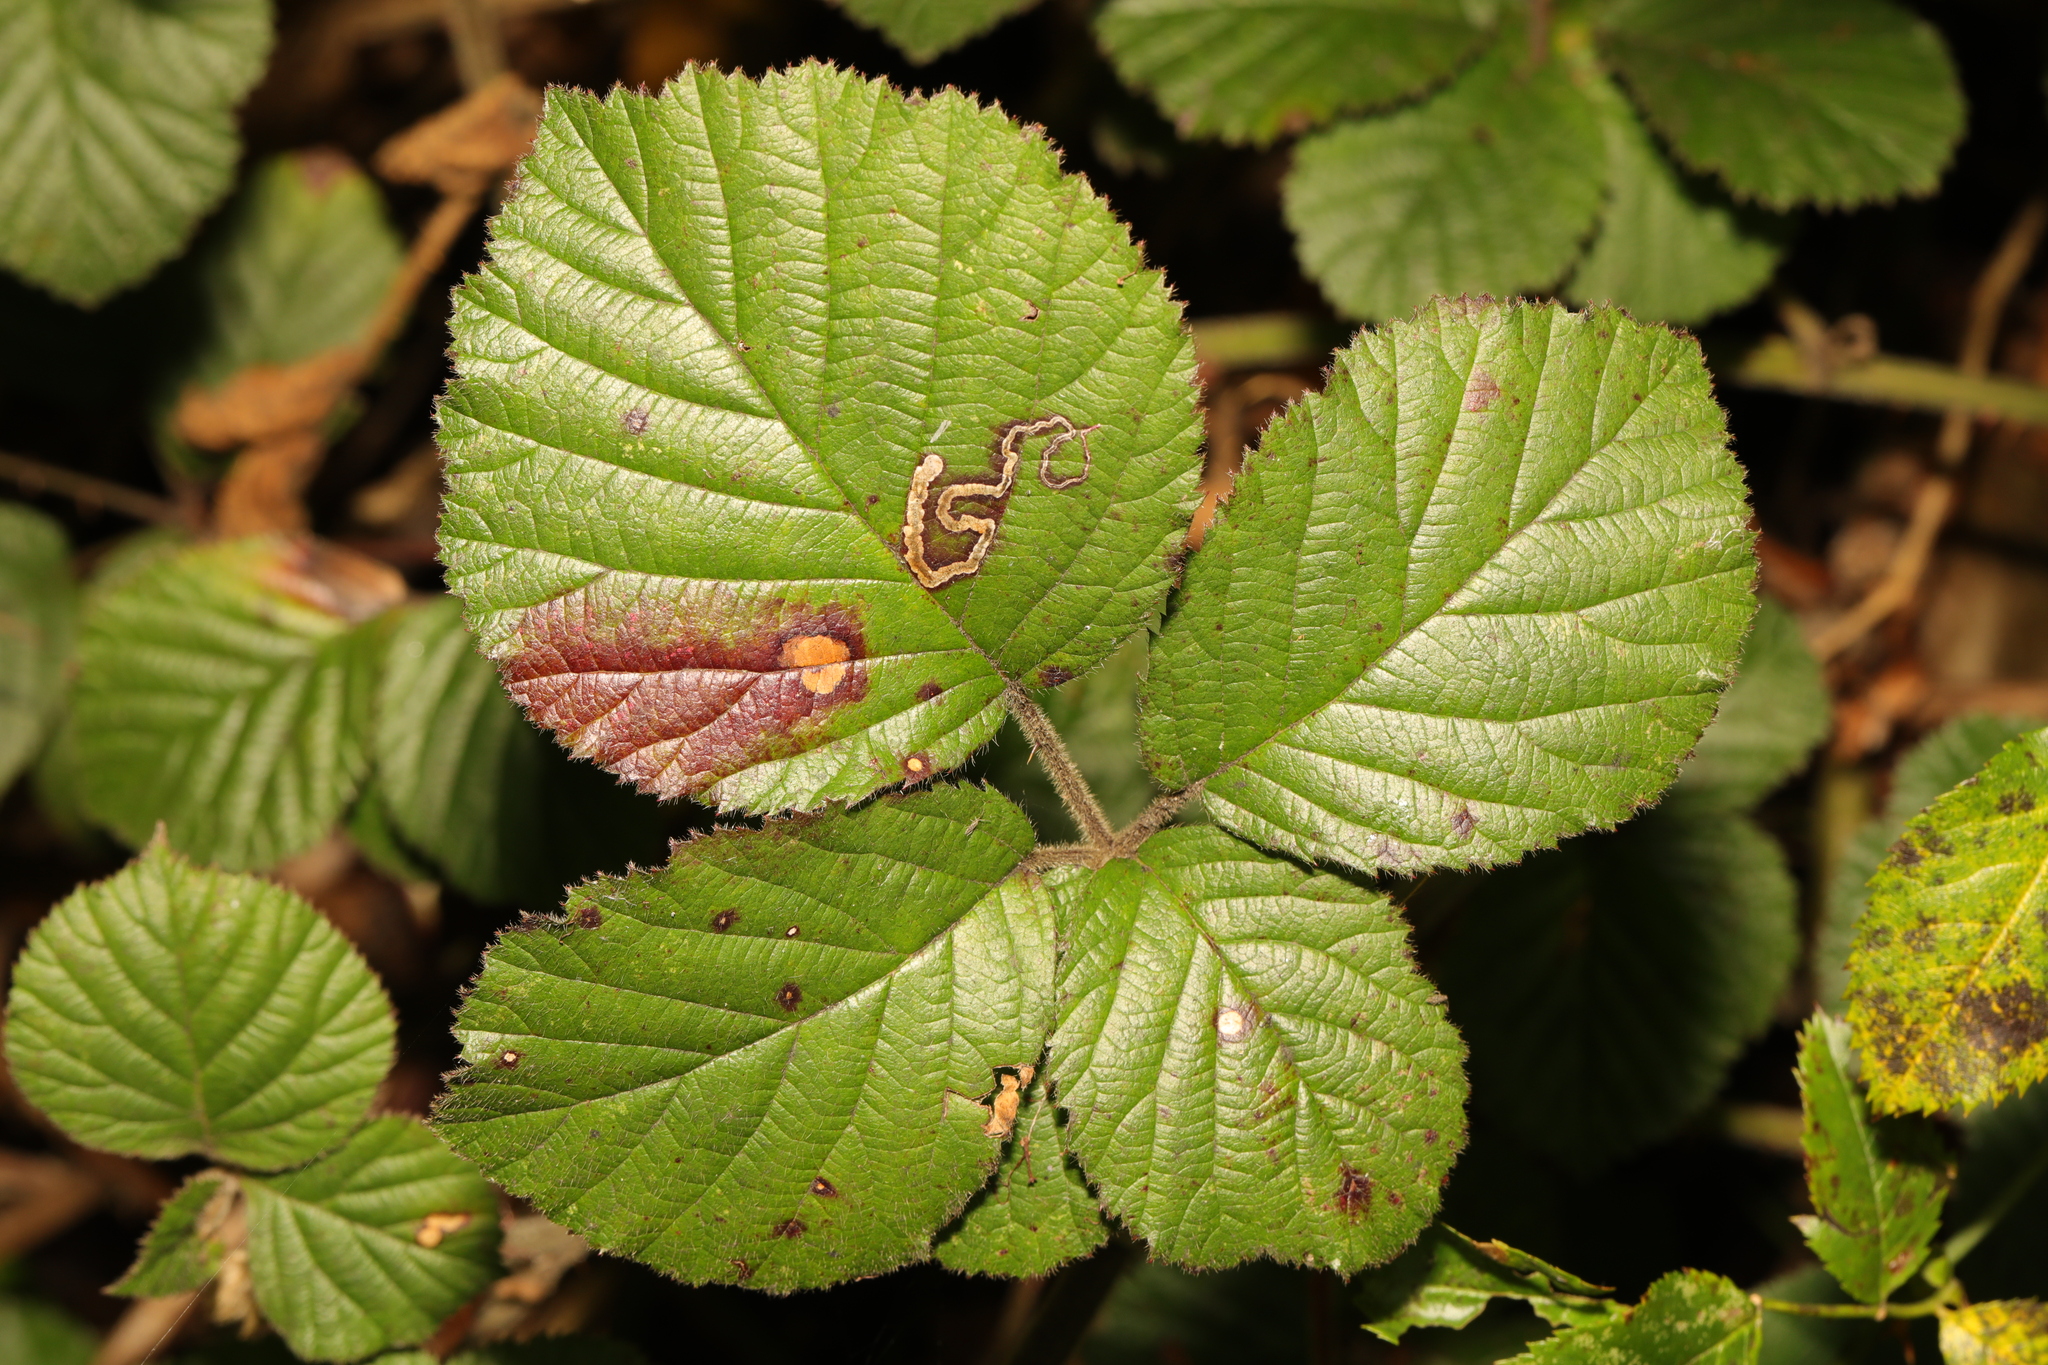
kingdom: Plantae
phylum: Tracheophyta
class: Magnoliopsida
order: Rosales
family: Rosaceae
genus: Rubus
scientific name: Rubus vestitus
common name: European blackberry
